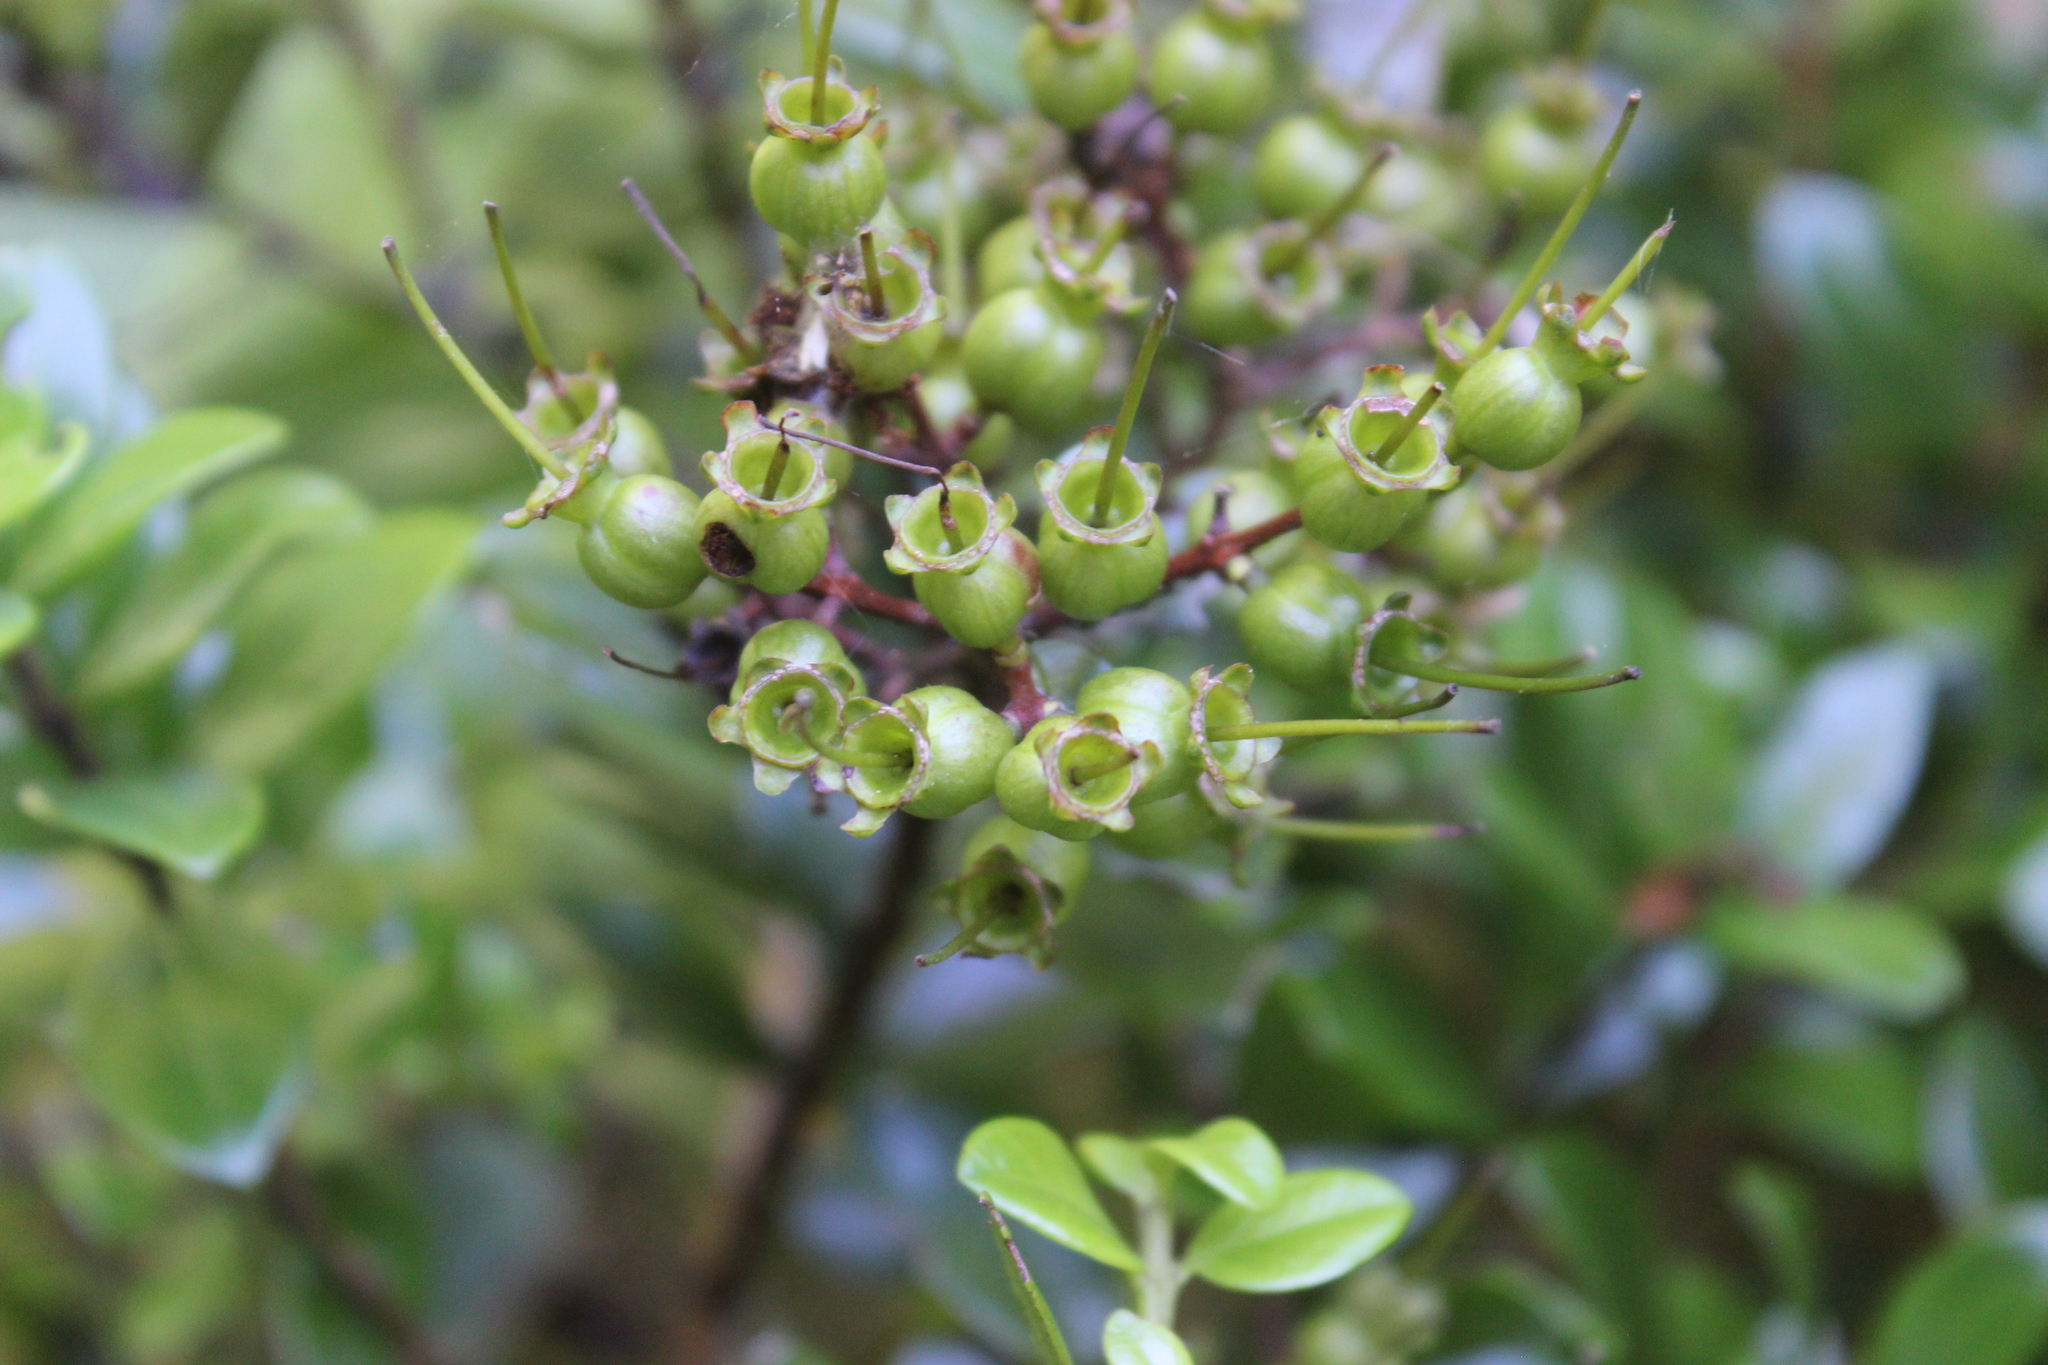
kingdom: Plantae
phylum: Tracheophyta
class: Magnoliopsida
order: Myrtales
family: Myrtaceae
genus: Metrosideros
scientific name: Metrosideros fulgens
